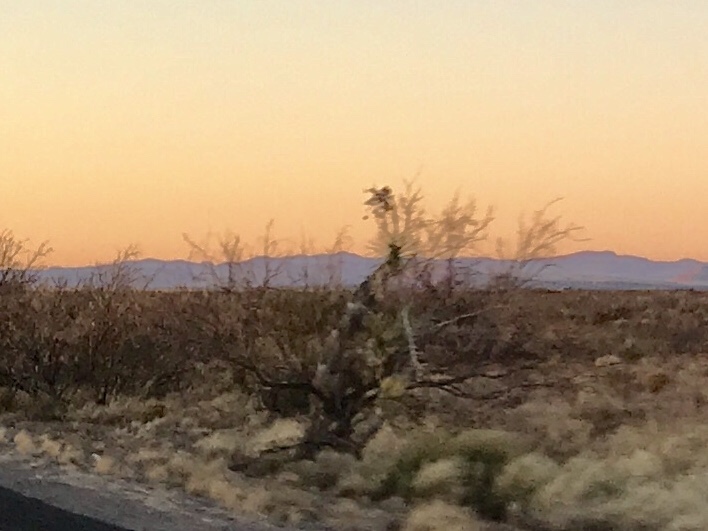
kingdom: Plantae
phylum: Tracheophyta
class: Liliopsida
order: Asparagales
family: Asparagaceae
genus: Yucca
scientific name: Yucca elata
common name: Palmella
